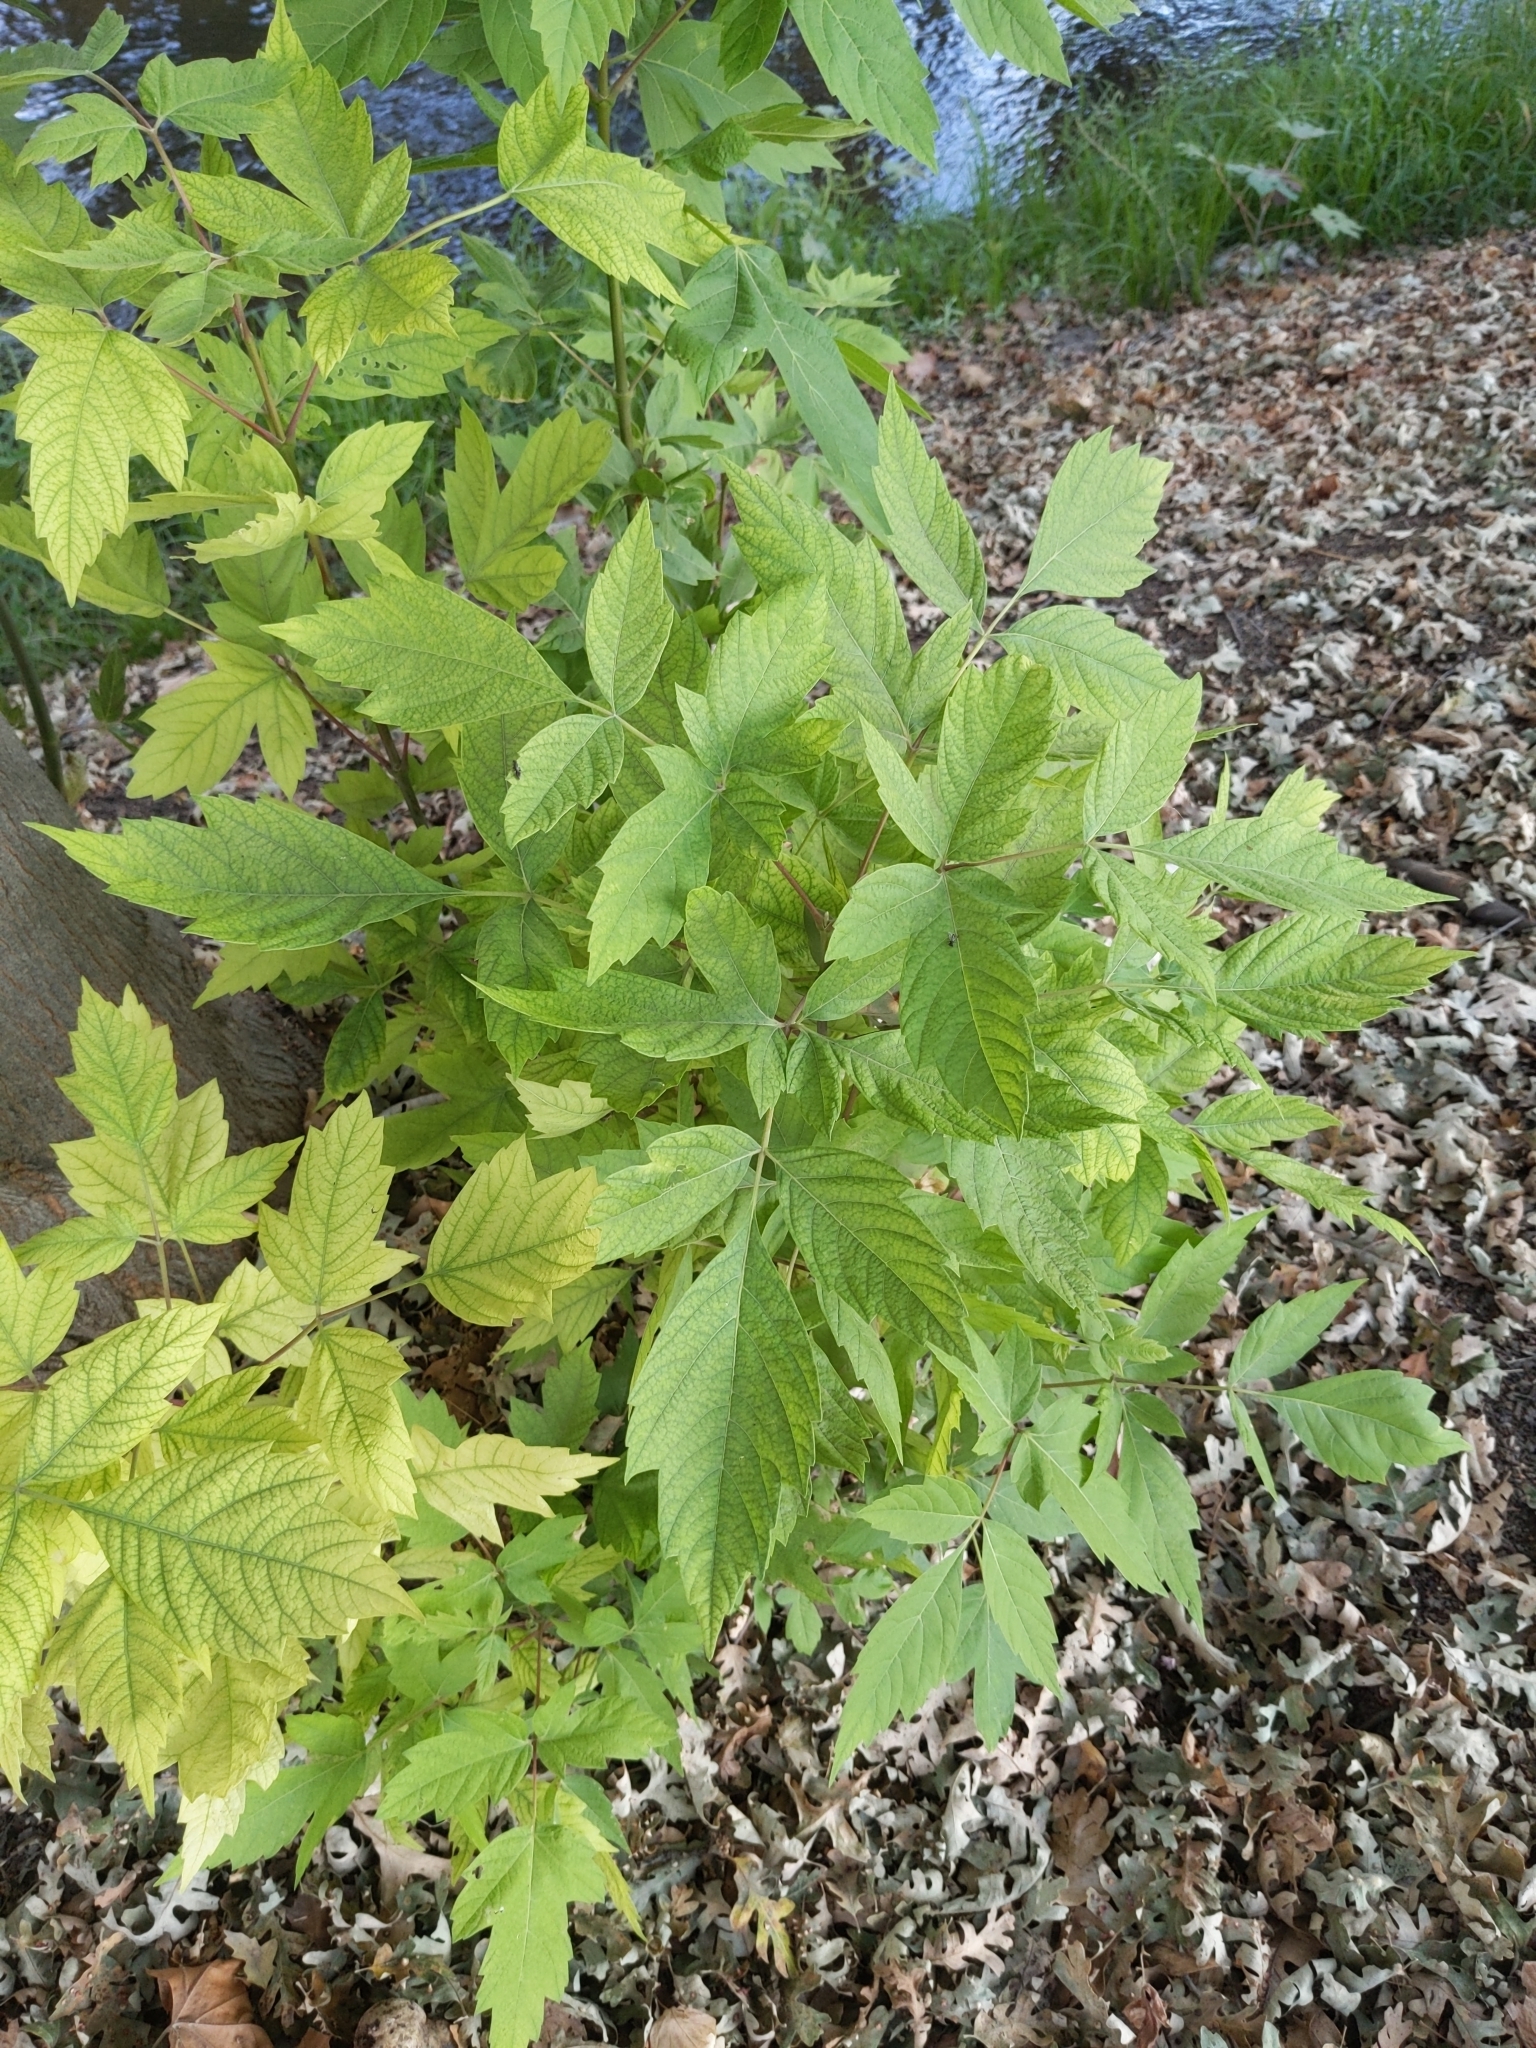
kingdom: Plantae
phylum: Tracheophyta
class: Magnoliopsida
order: Sapindales
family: Sapindaceae
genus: Acer
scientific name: Acer negundo
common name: Ashleaf maple
